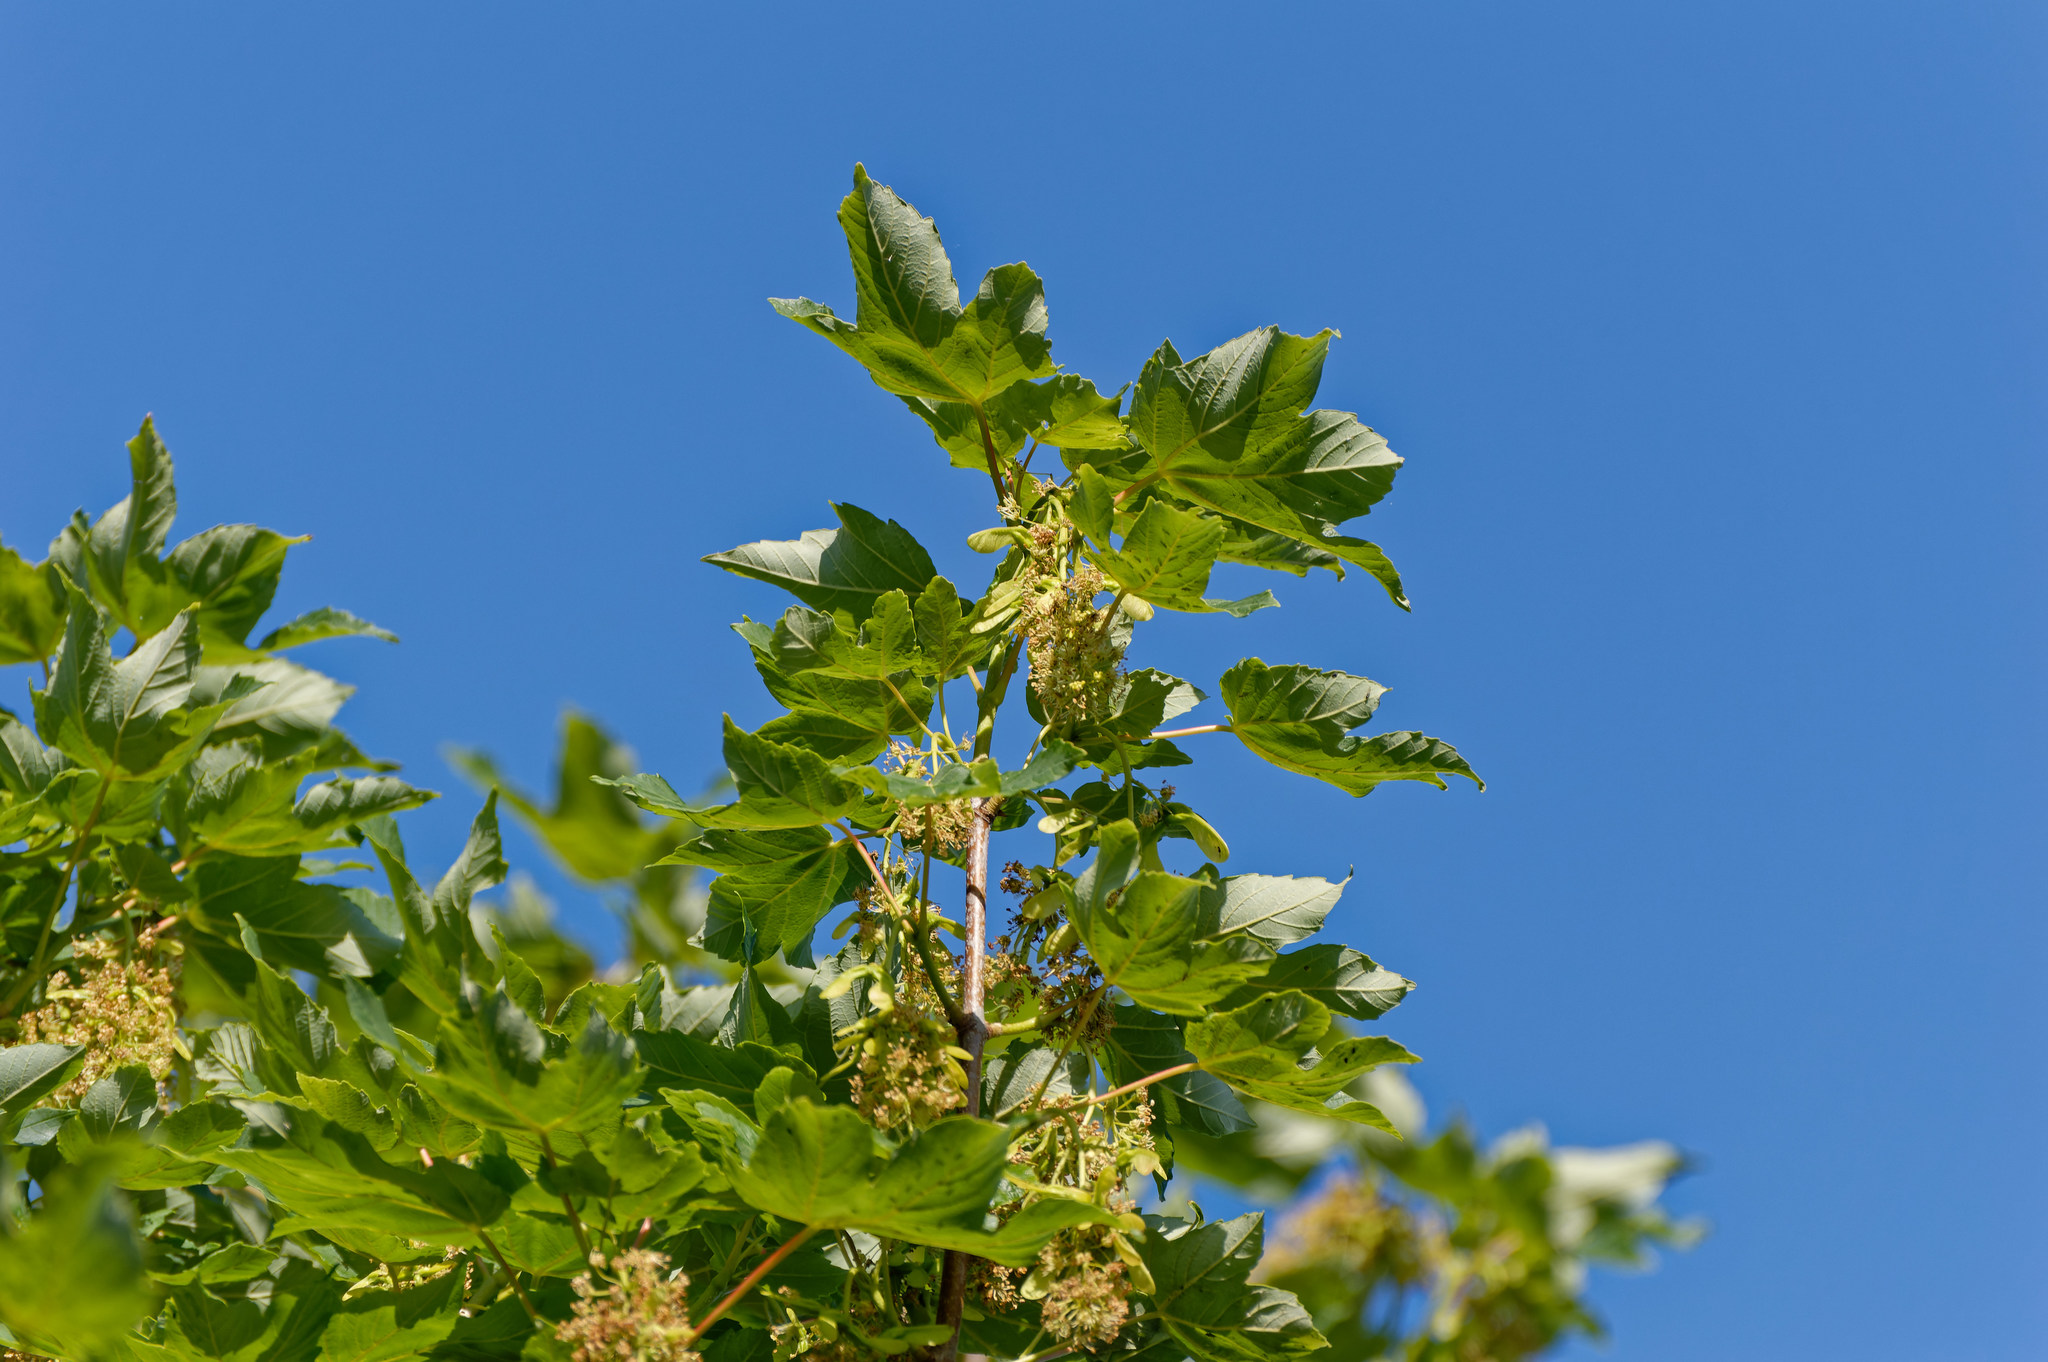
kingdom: Plantae
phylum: Tracheophyta
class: Magnoliopsida
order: Sapindales
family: Sapindaceae
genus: Acer
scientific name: Acer pseudoplatanus
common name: Sycamore
